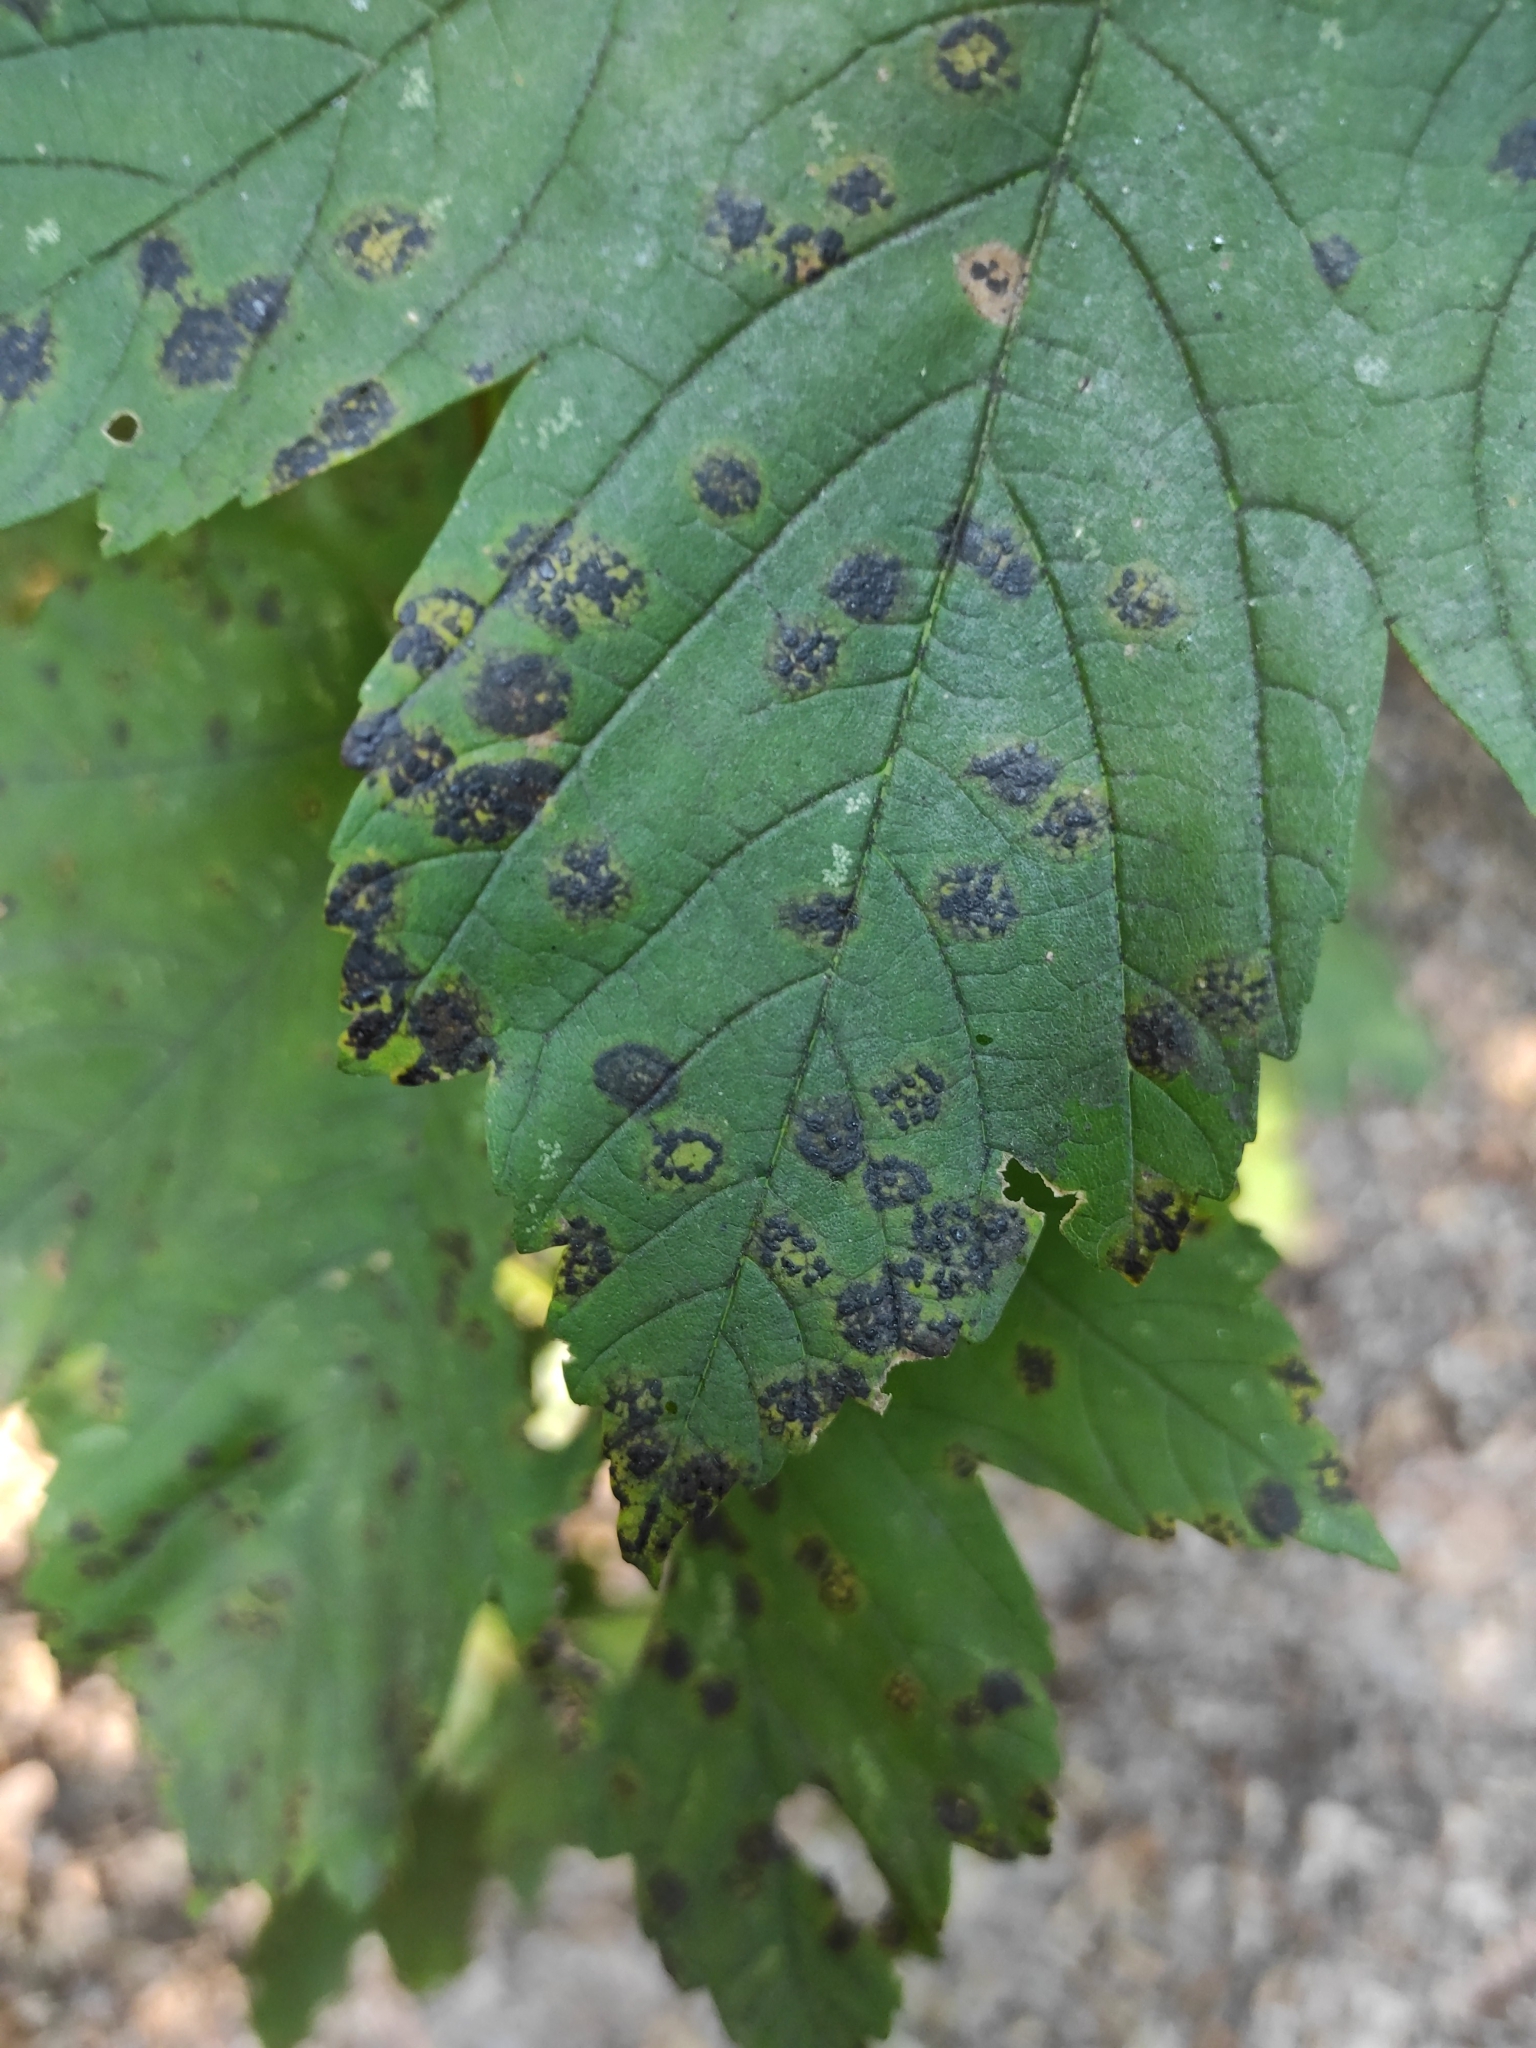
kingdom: Fungi
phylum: Ascomycota
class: Leotiomycetes
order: Rhytismatales
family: Rhytismataceae
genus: Rhytisma
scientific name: Rhytisma acerinum
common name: European tar spot
